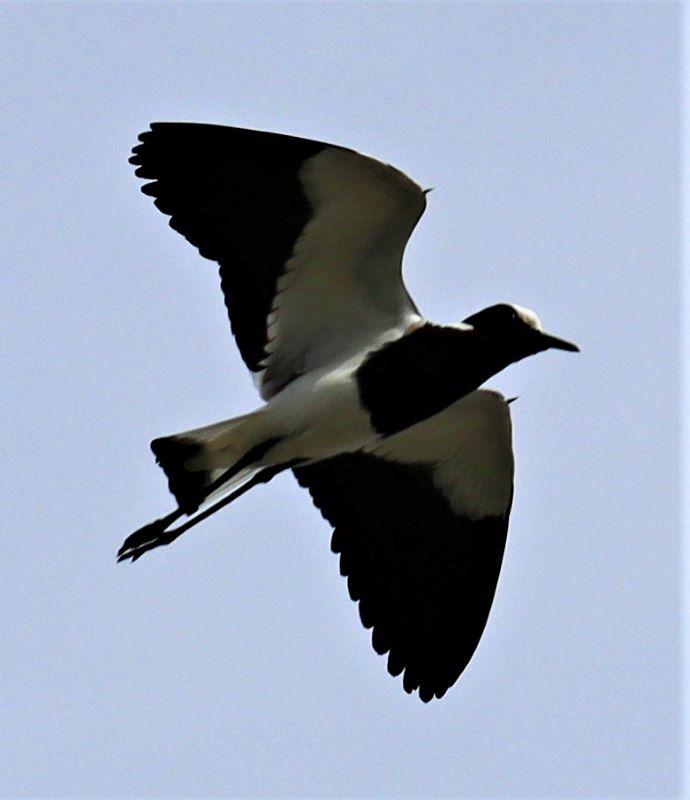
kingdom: Animalia
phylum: Chordata
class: Aves
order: Charadriiformes
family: Charadriidae
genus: Vanellus
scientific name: Vanellus armatus
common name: Blacksmith lapwing
